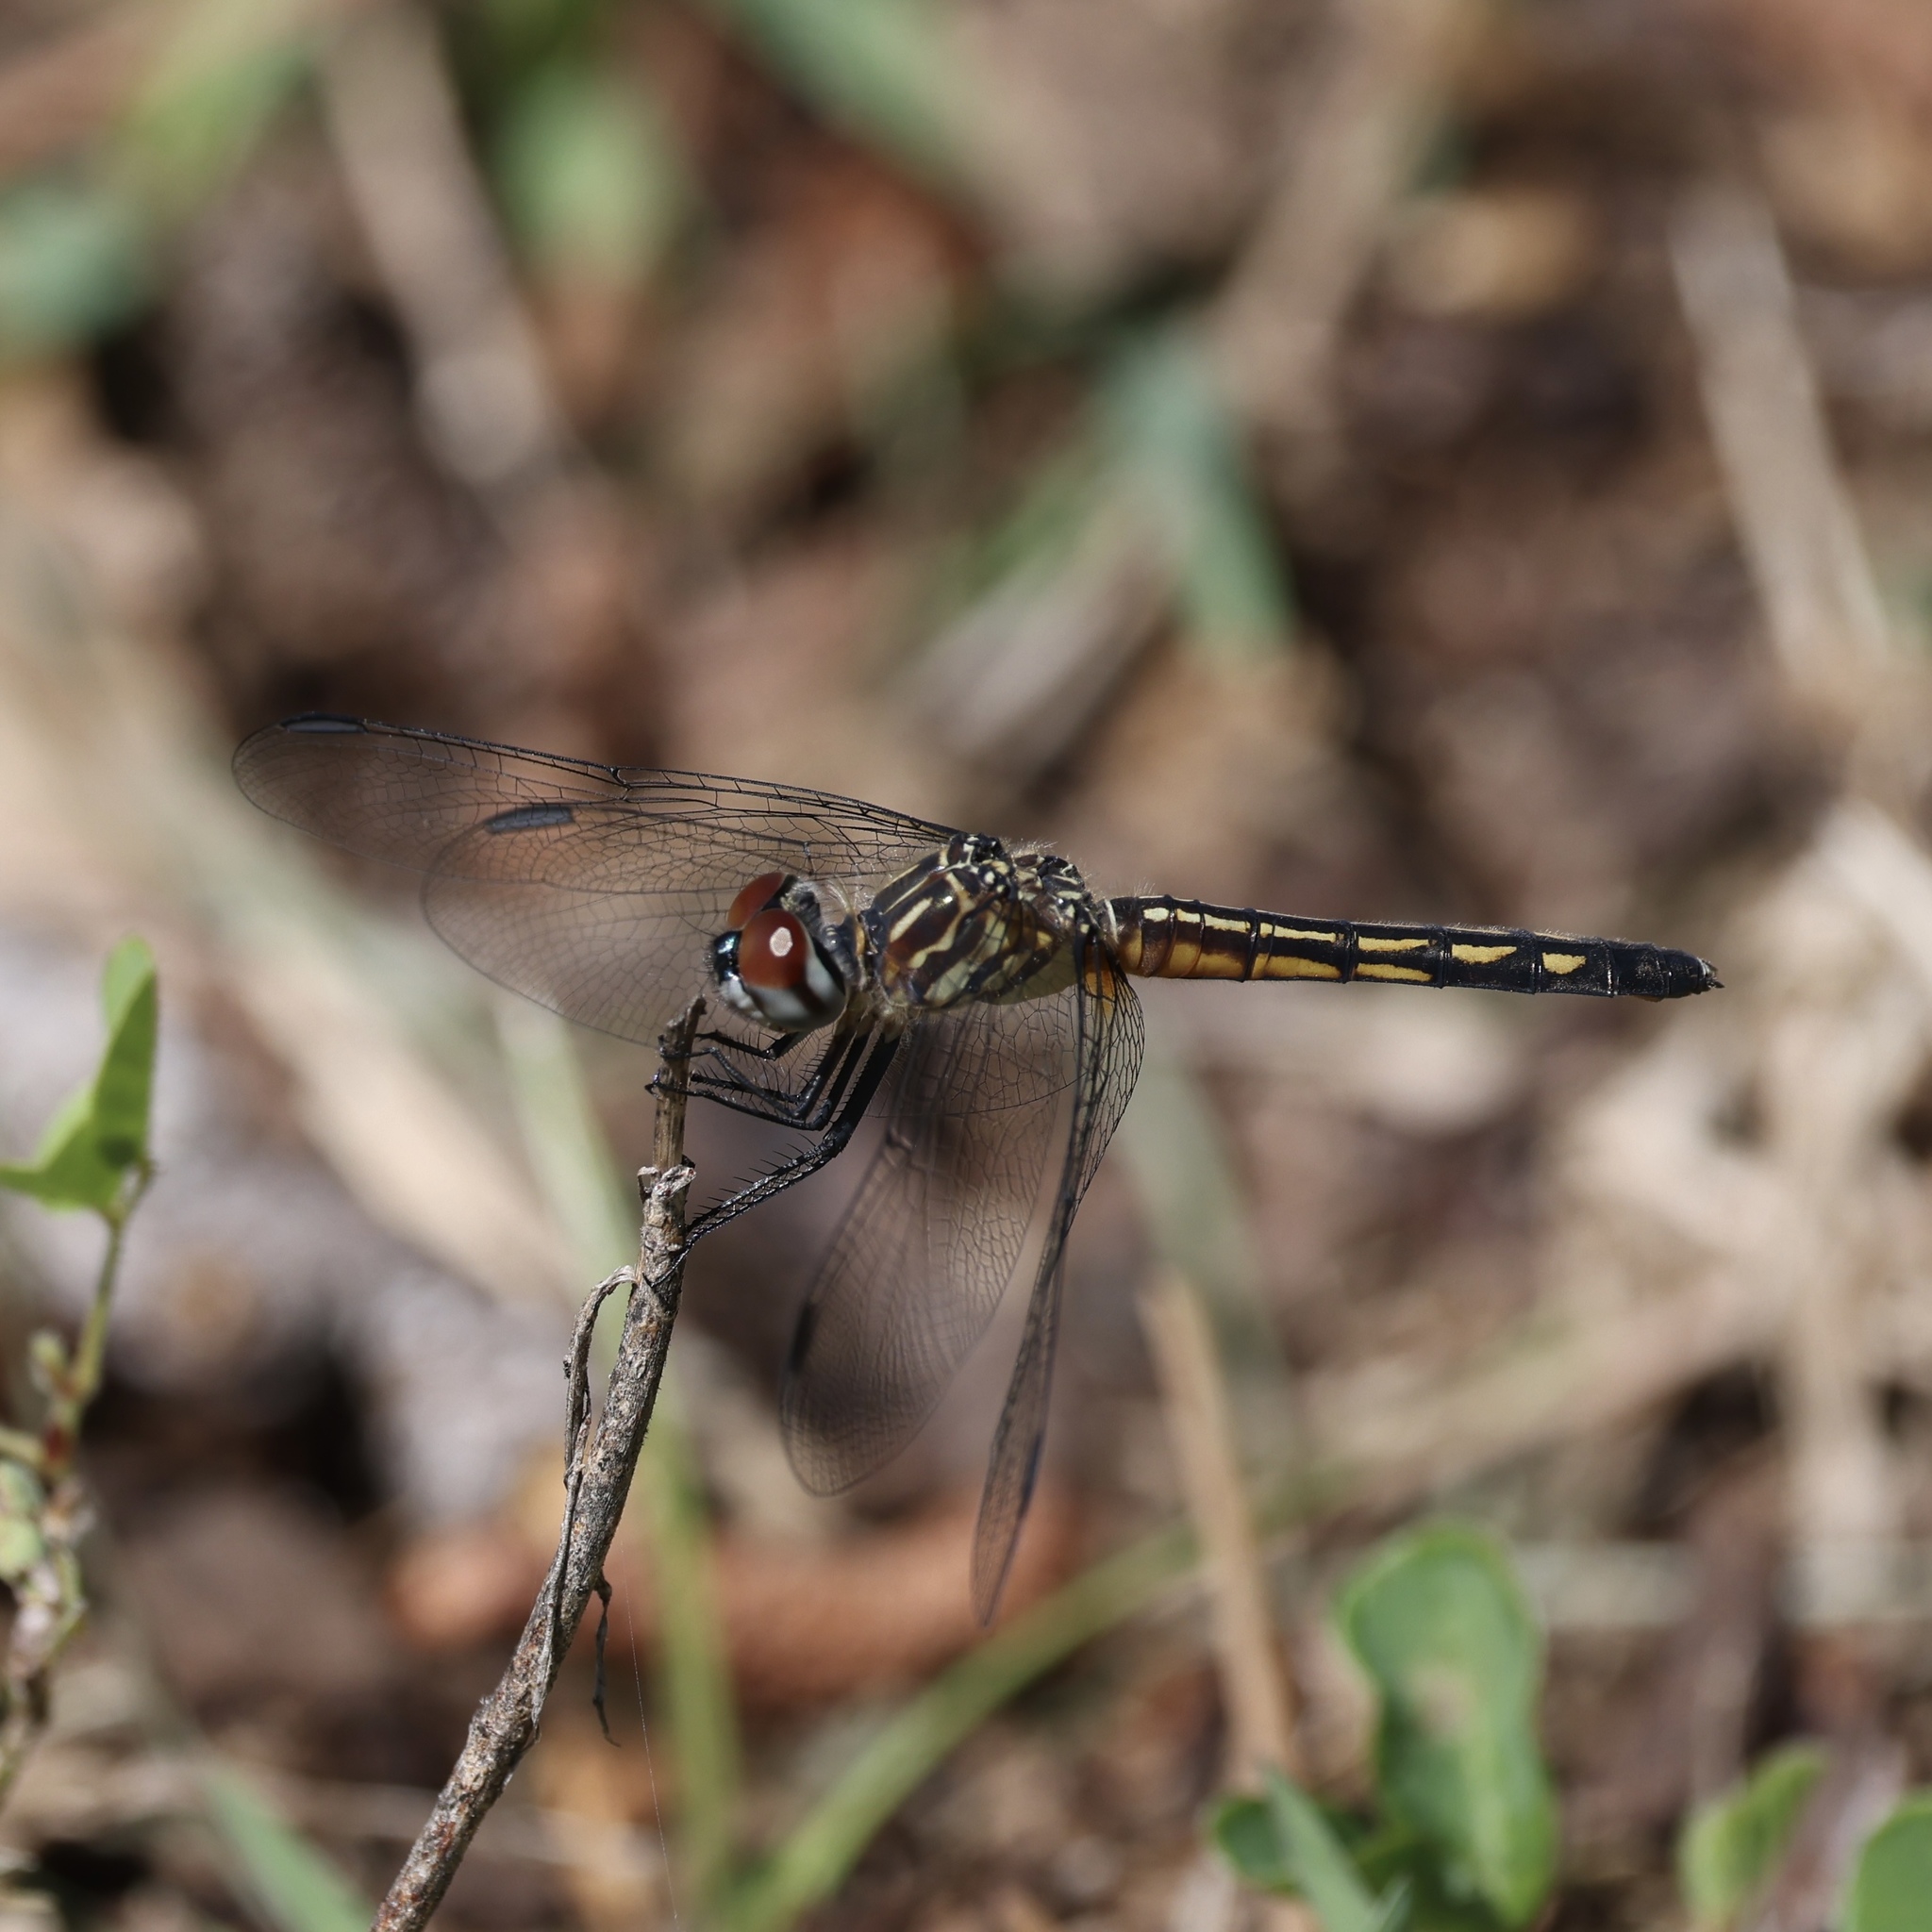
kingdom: Animalia
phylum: Arthropoda
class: Insecta
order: Odonata
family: Libellulidae
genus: Pachydiplax
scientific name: Pachydiplax longipennis
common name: Blue dasher
